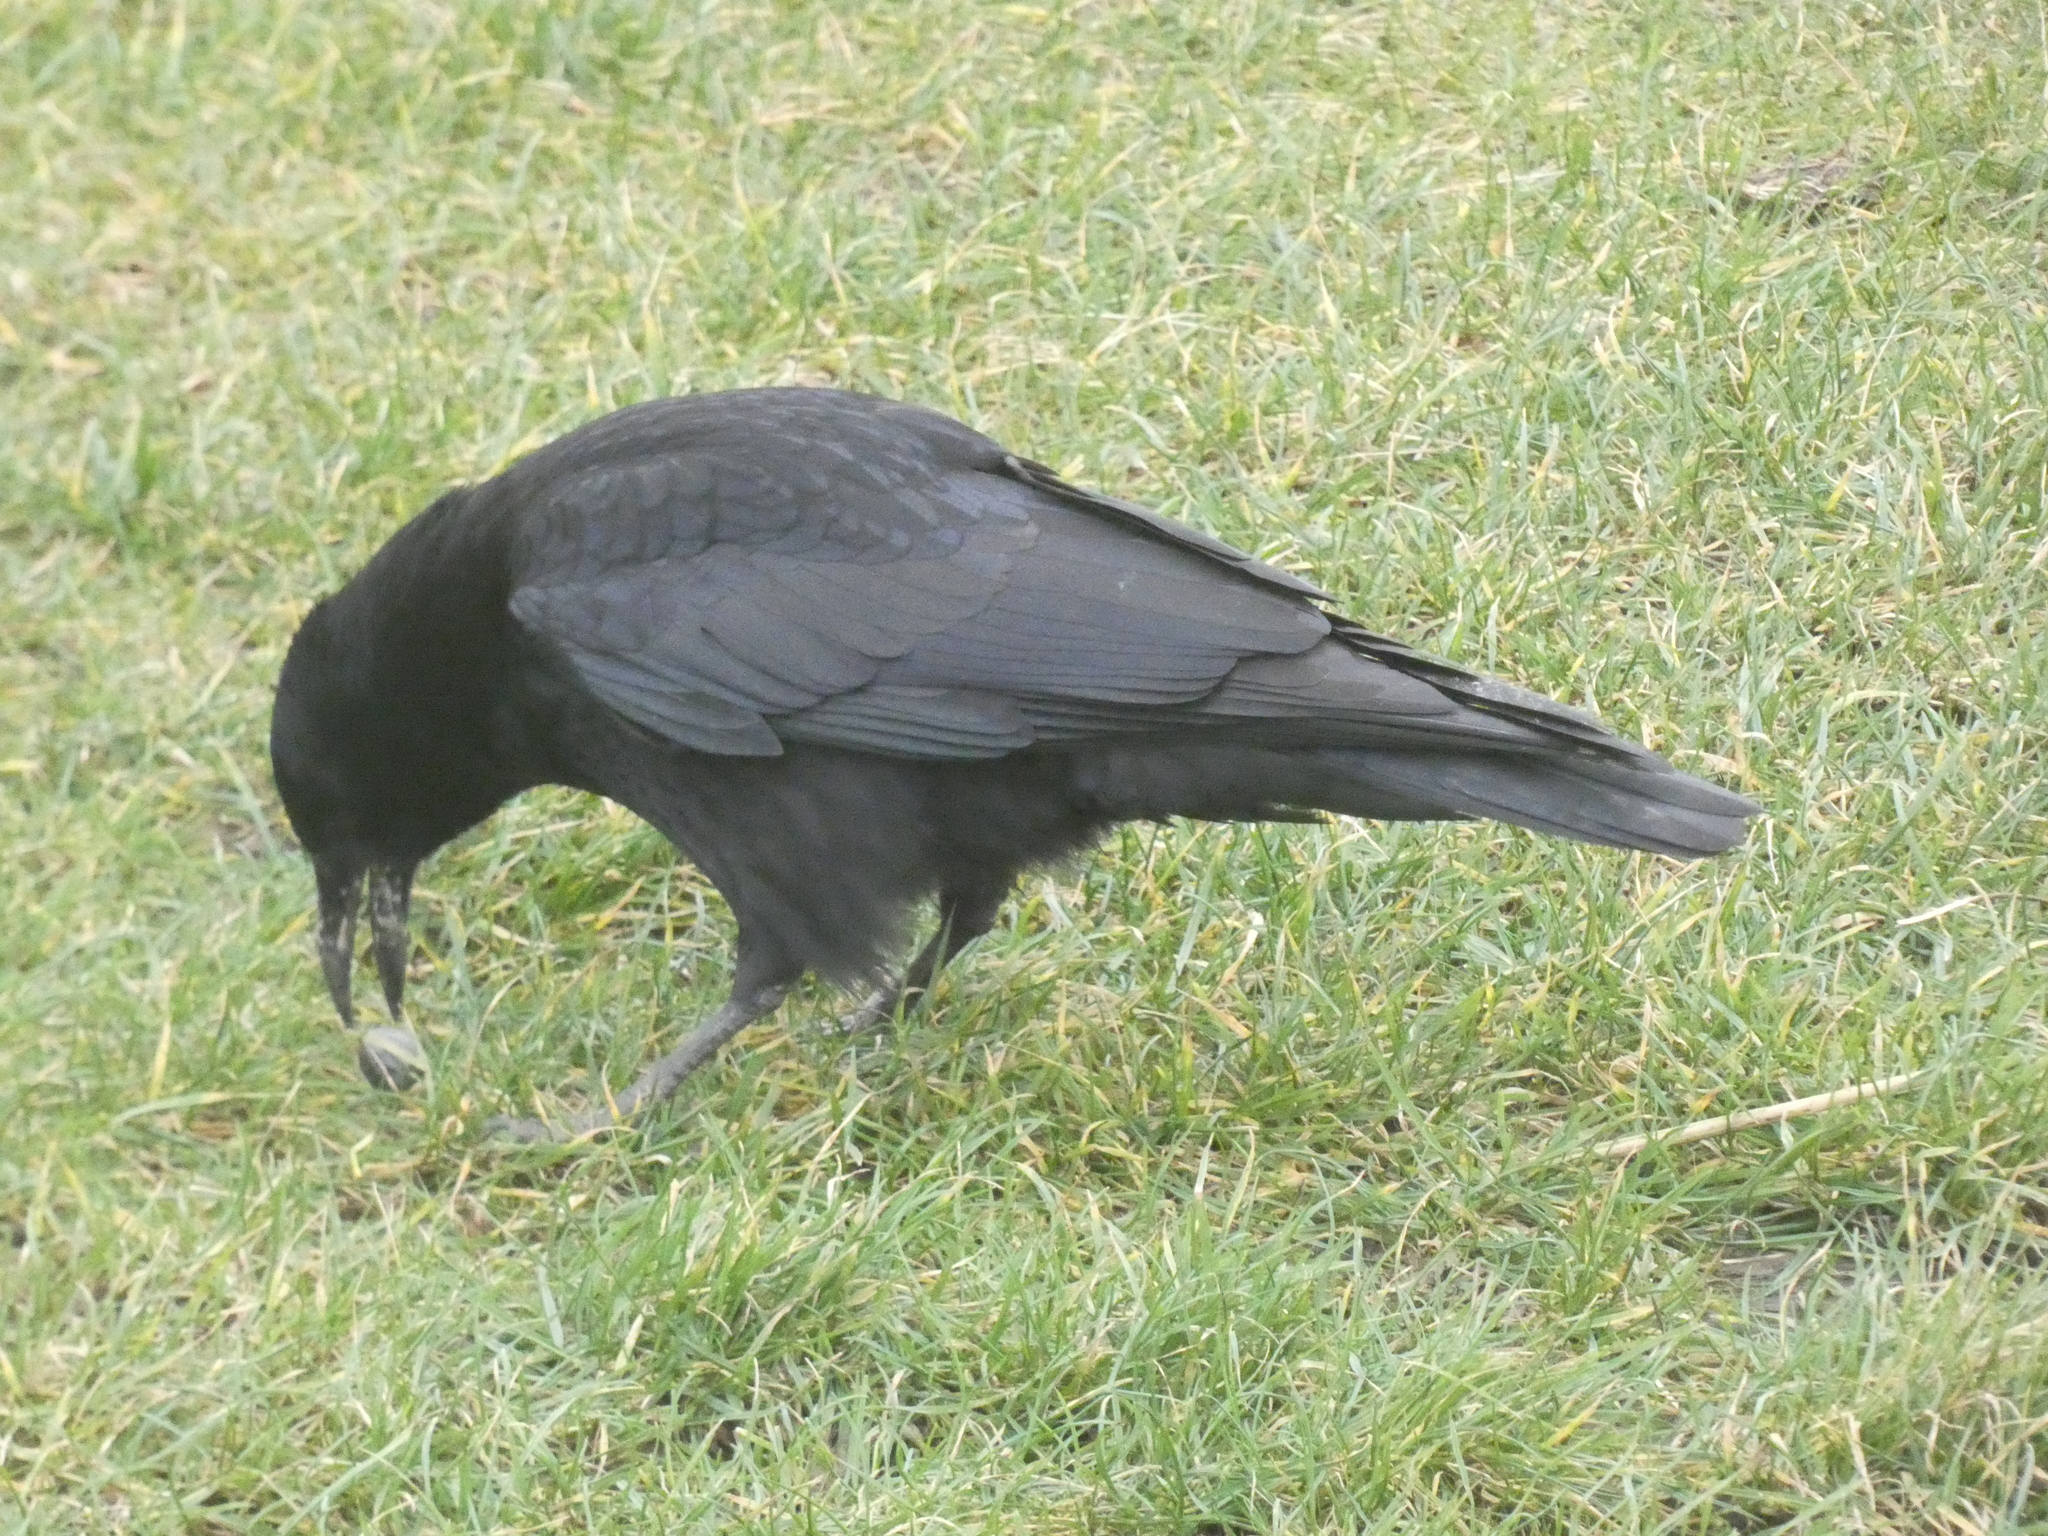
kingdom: Animalia
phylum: Chordata
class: Aves
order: Passeriformes
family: Corvidae
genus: Corvus
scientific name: Corvus corone
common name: Carrion crow
